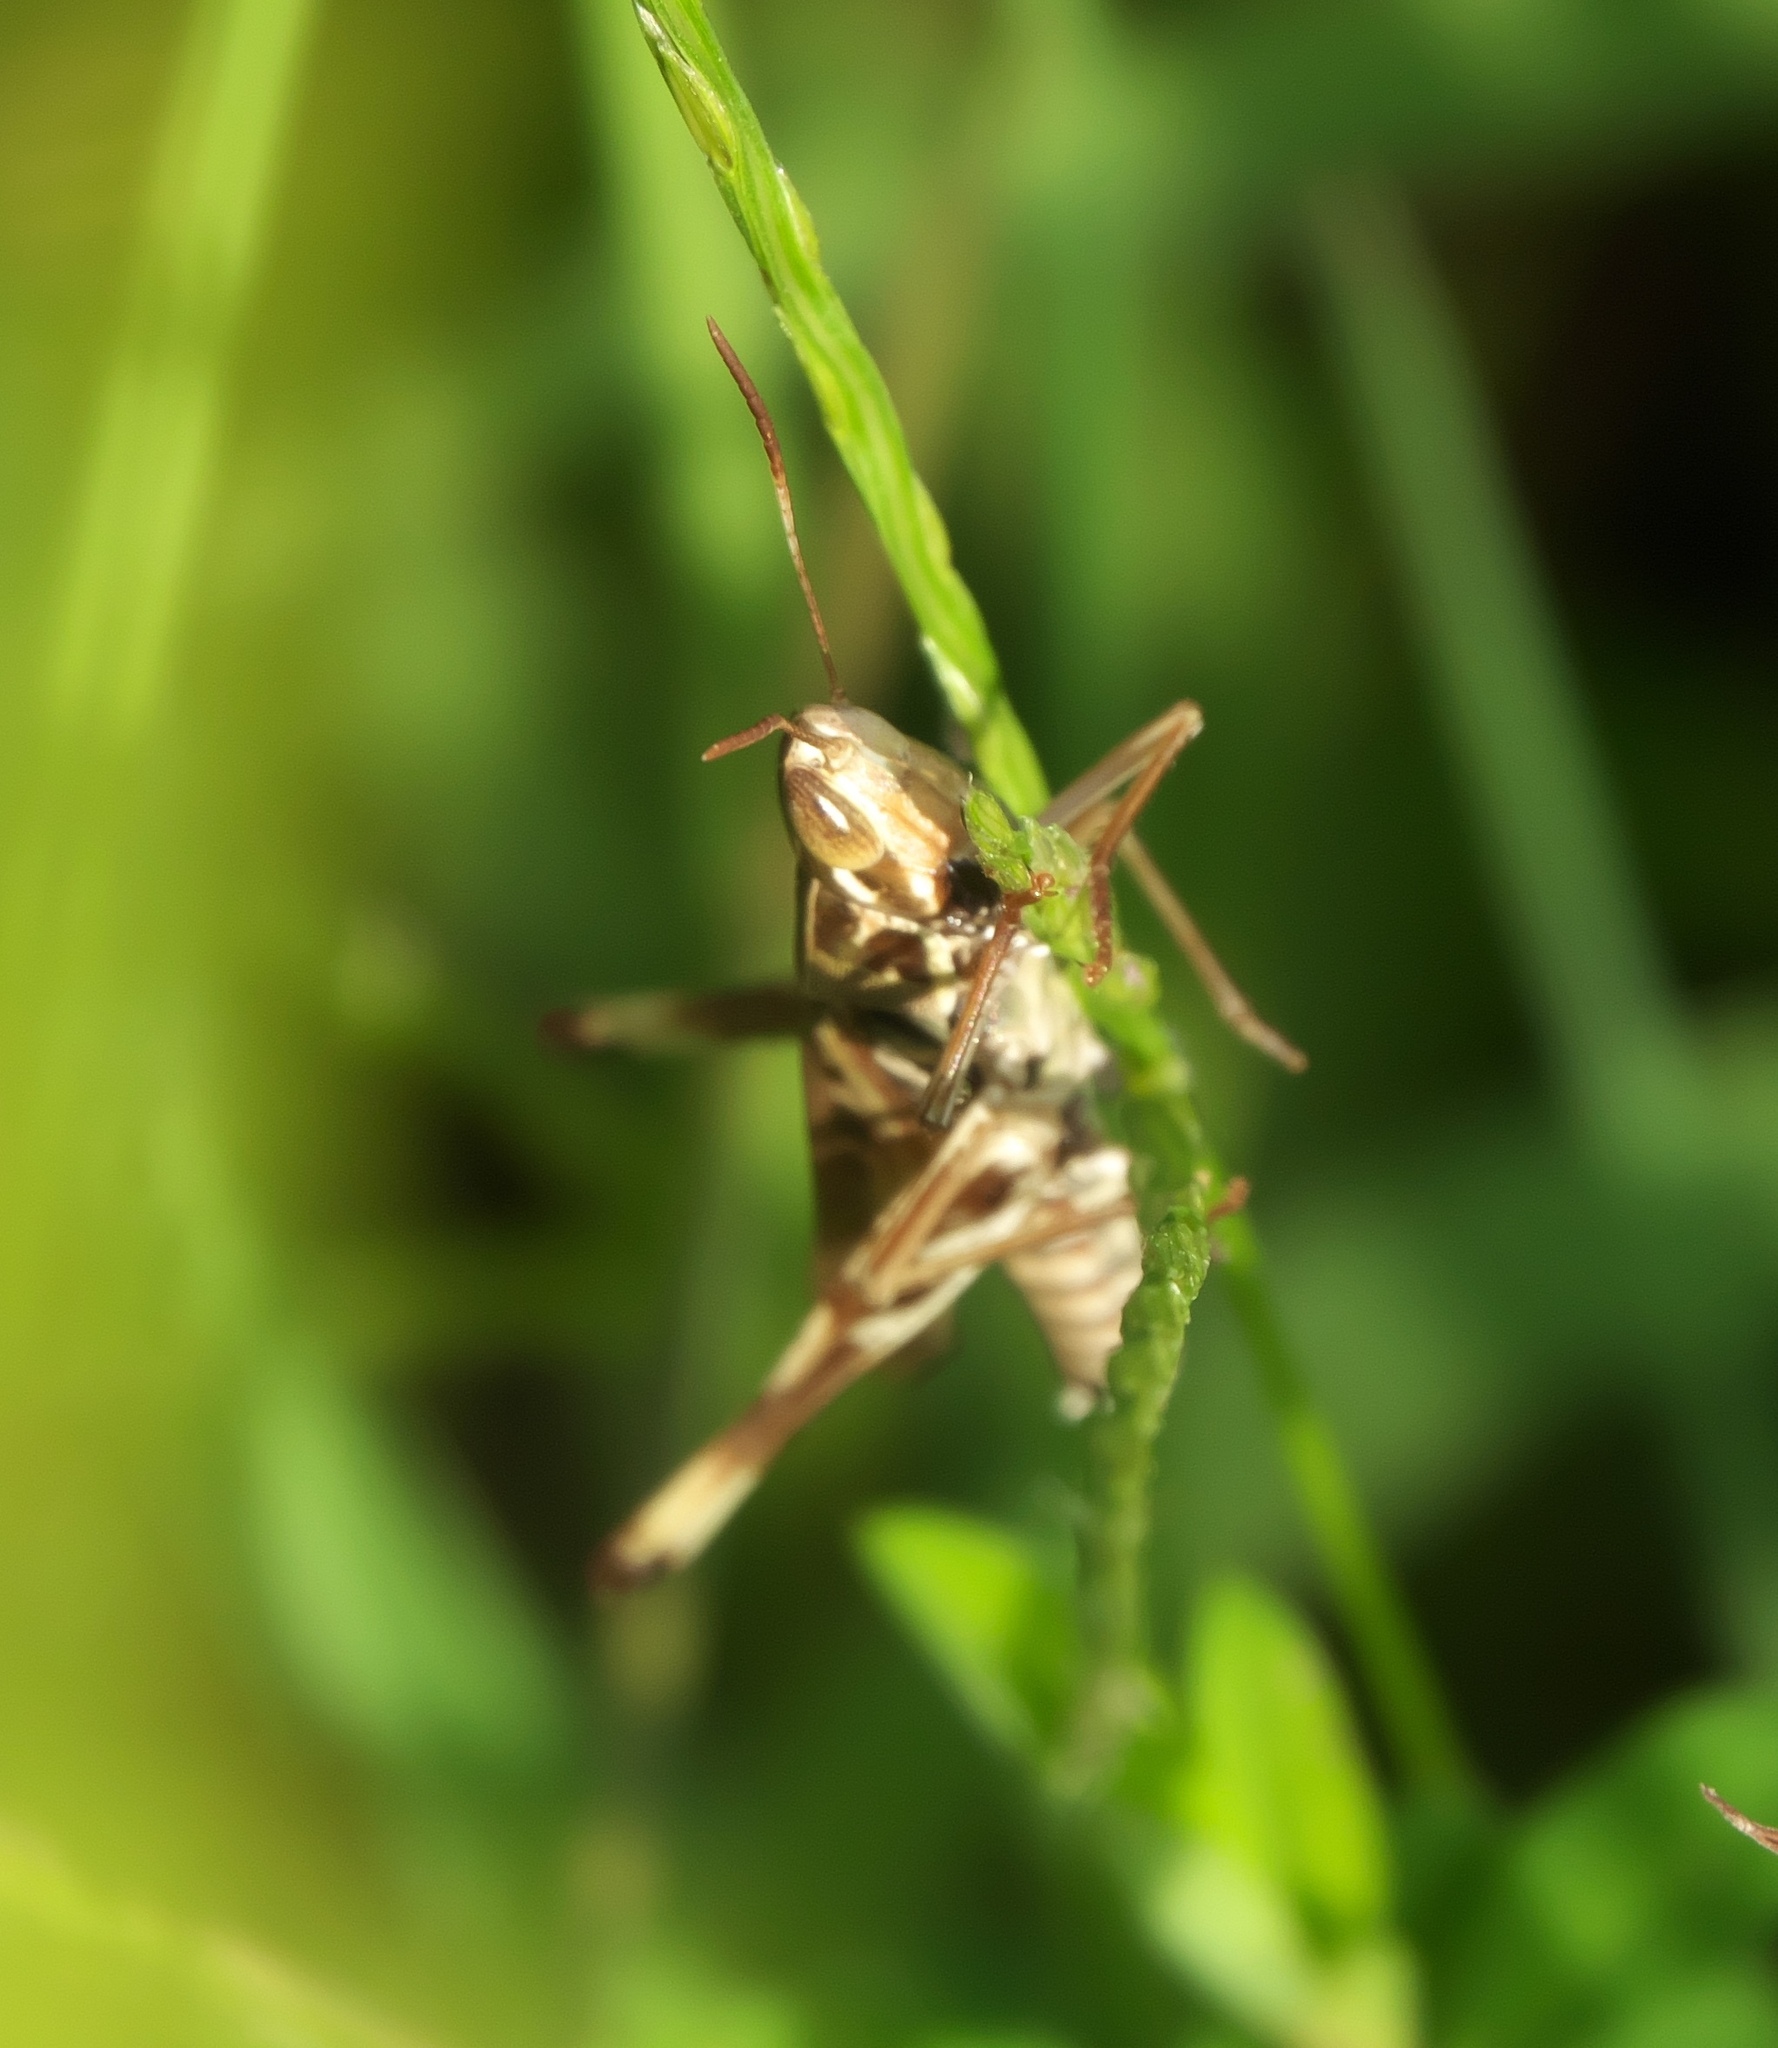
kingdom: Animalia
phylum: Arthropoda
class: Insecta
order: Orthoptera
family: Acrididae
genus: Syrbula
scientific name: Syrbula admirabilis
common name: Handsome grasshopper
